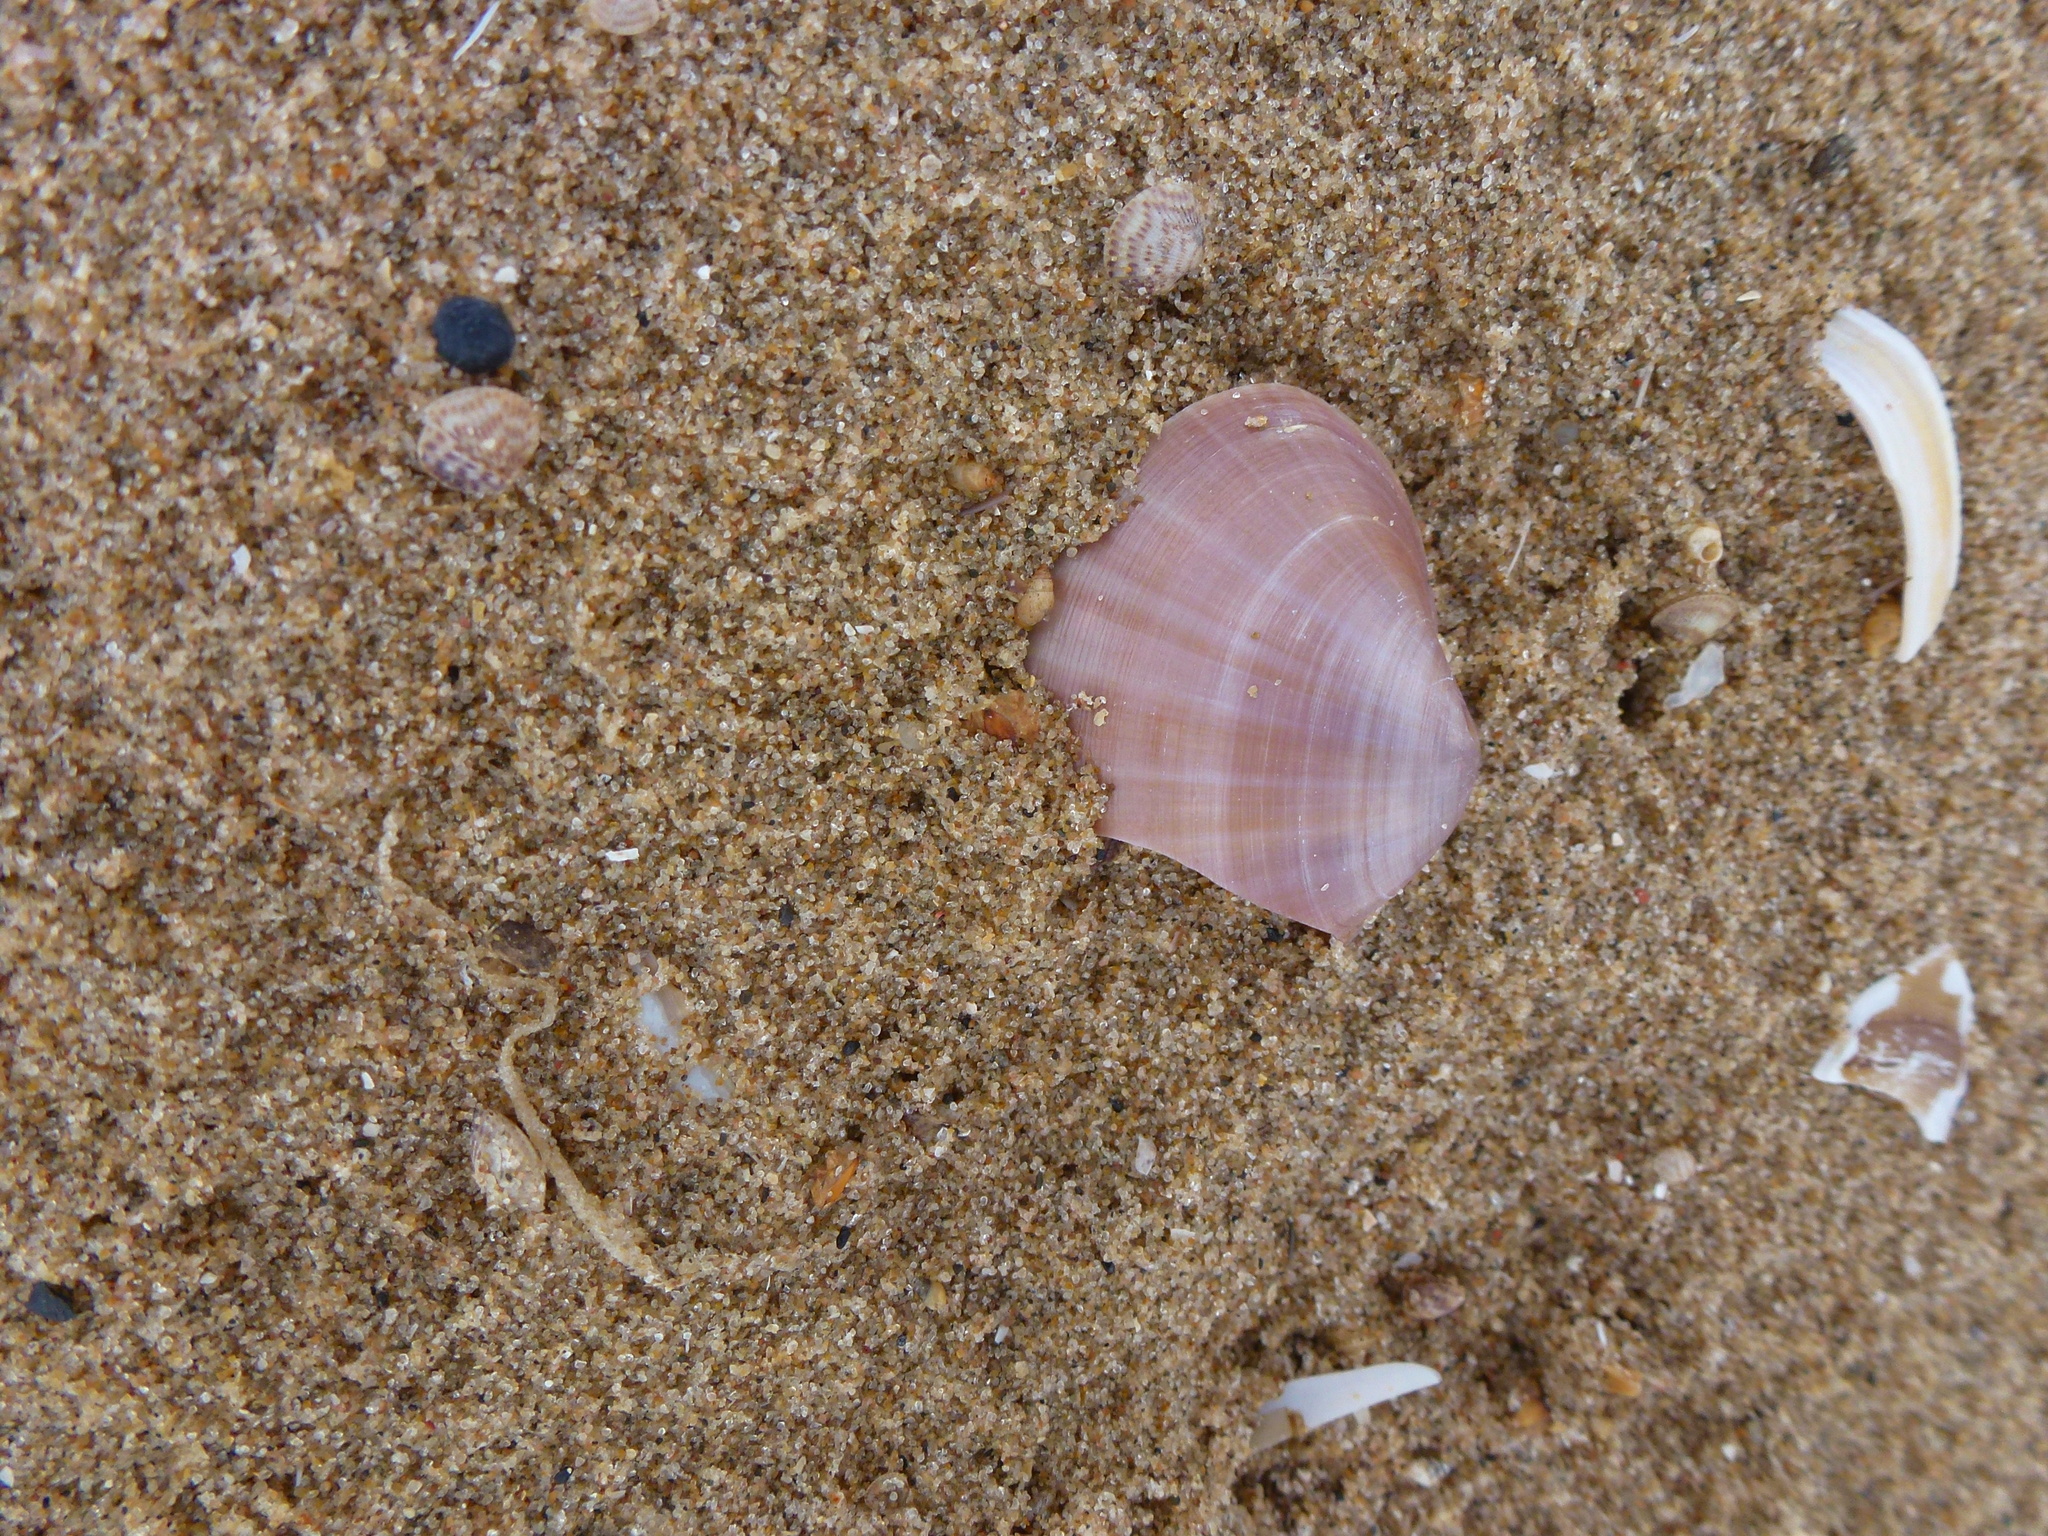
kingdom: Animalia
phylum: Mollusca
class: Bivalvia
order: Venerida
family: Mactridae
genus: Mactra
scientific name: Mactra stultorum
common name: Rayed trough shell
